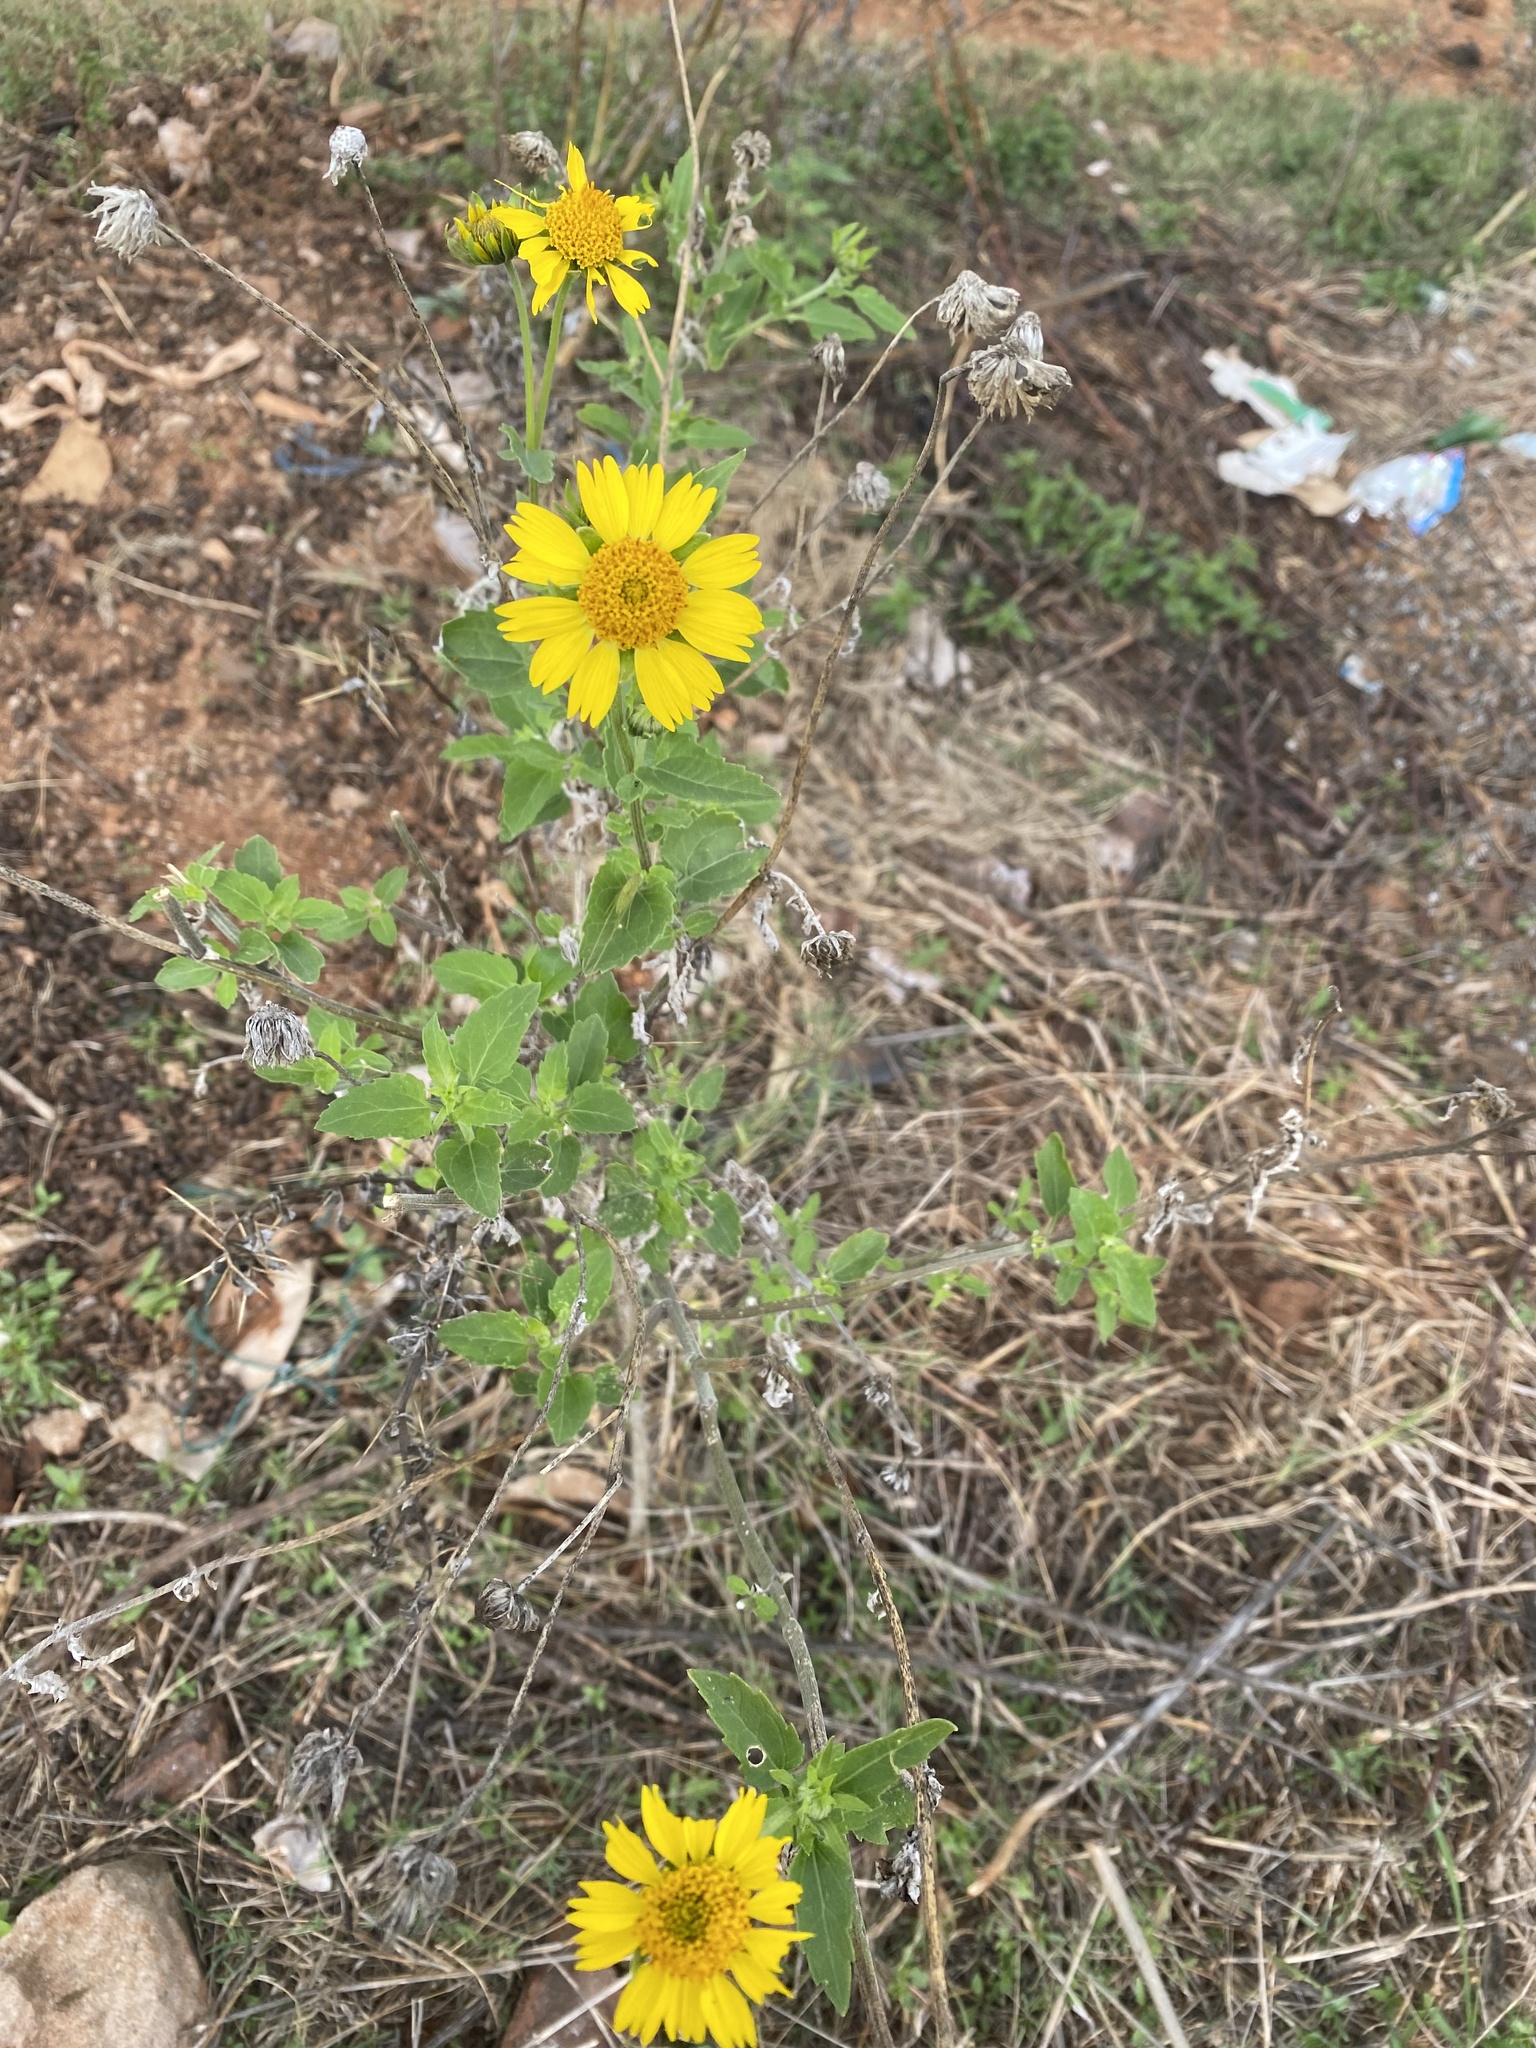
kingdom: Plantae
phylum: Tracheophyta
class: Magnoliopsida
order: Asterales
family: Asteraceae
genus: Verbesina
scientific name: Verbesina encelioides
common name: Golden crownbeard
